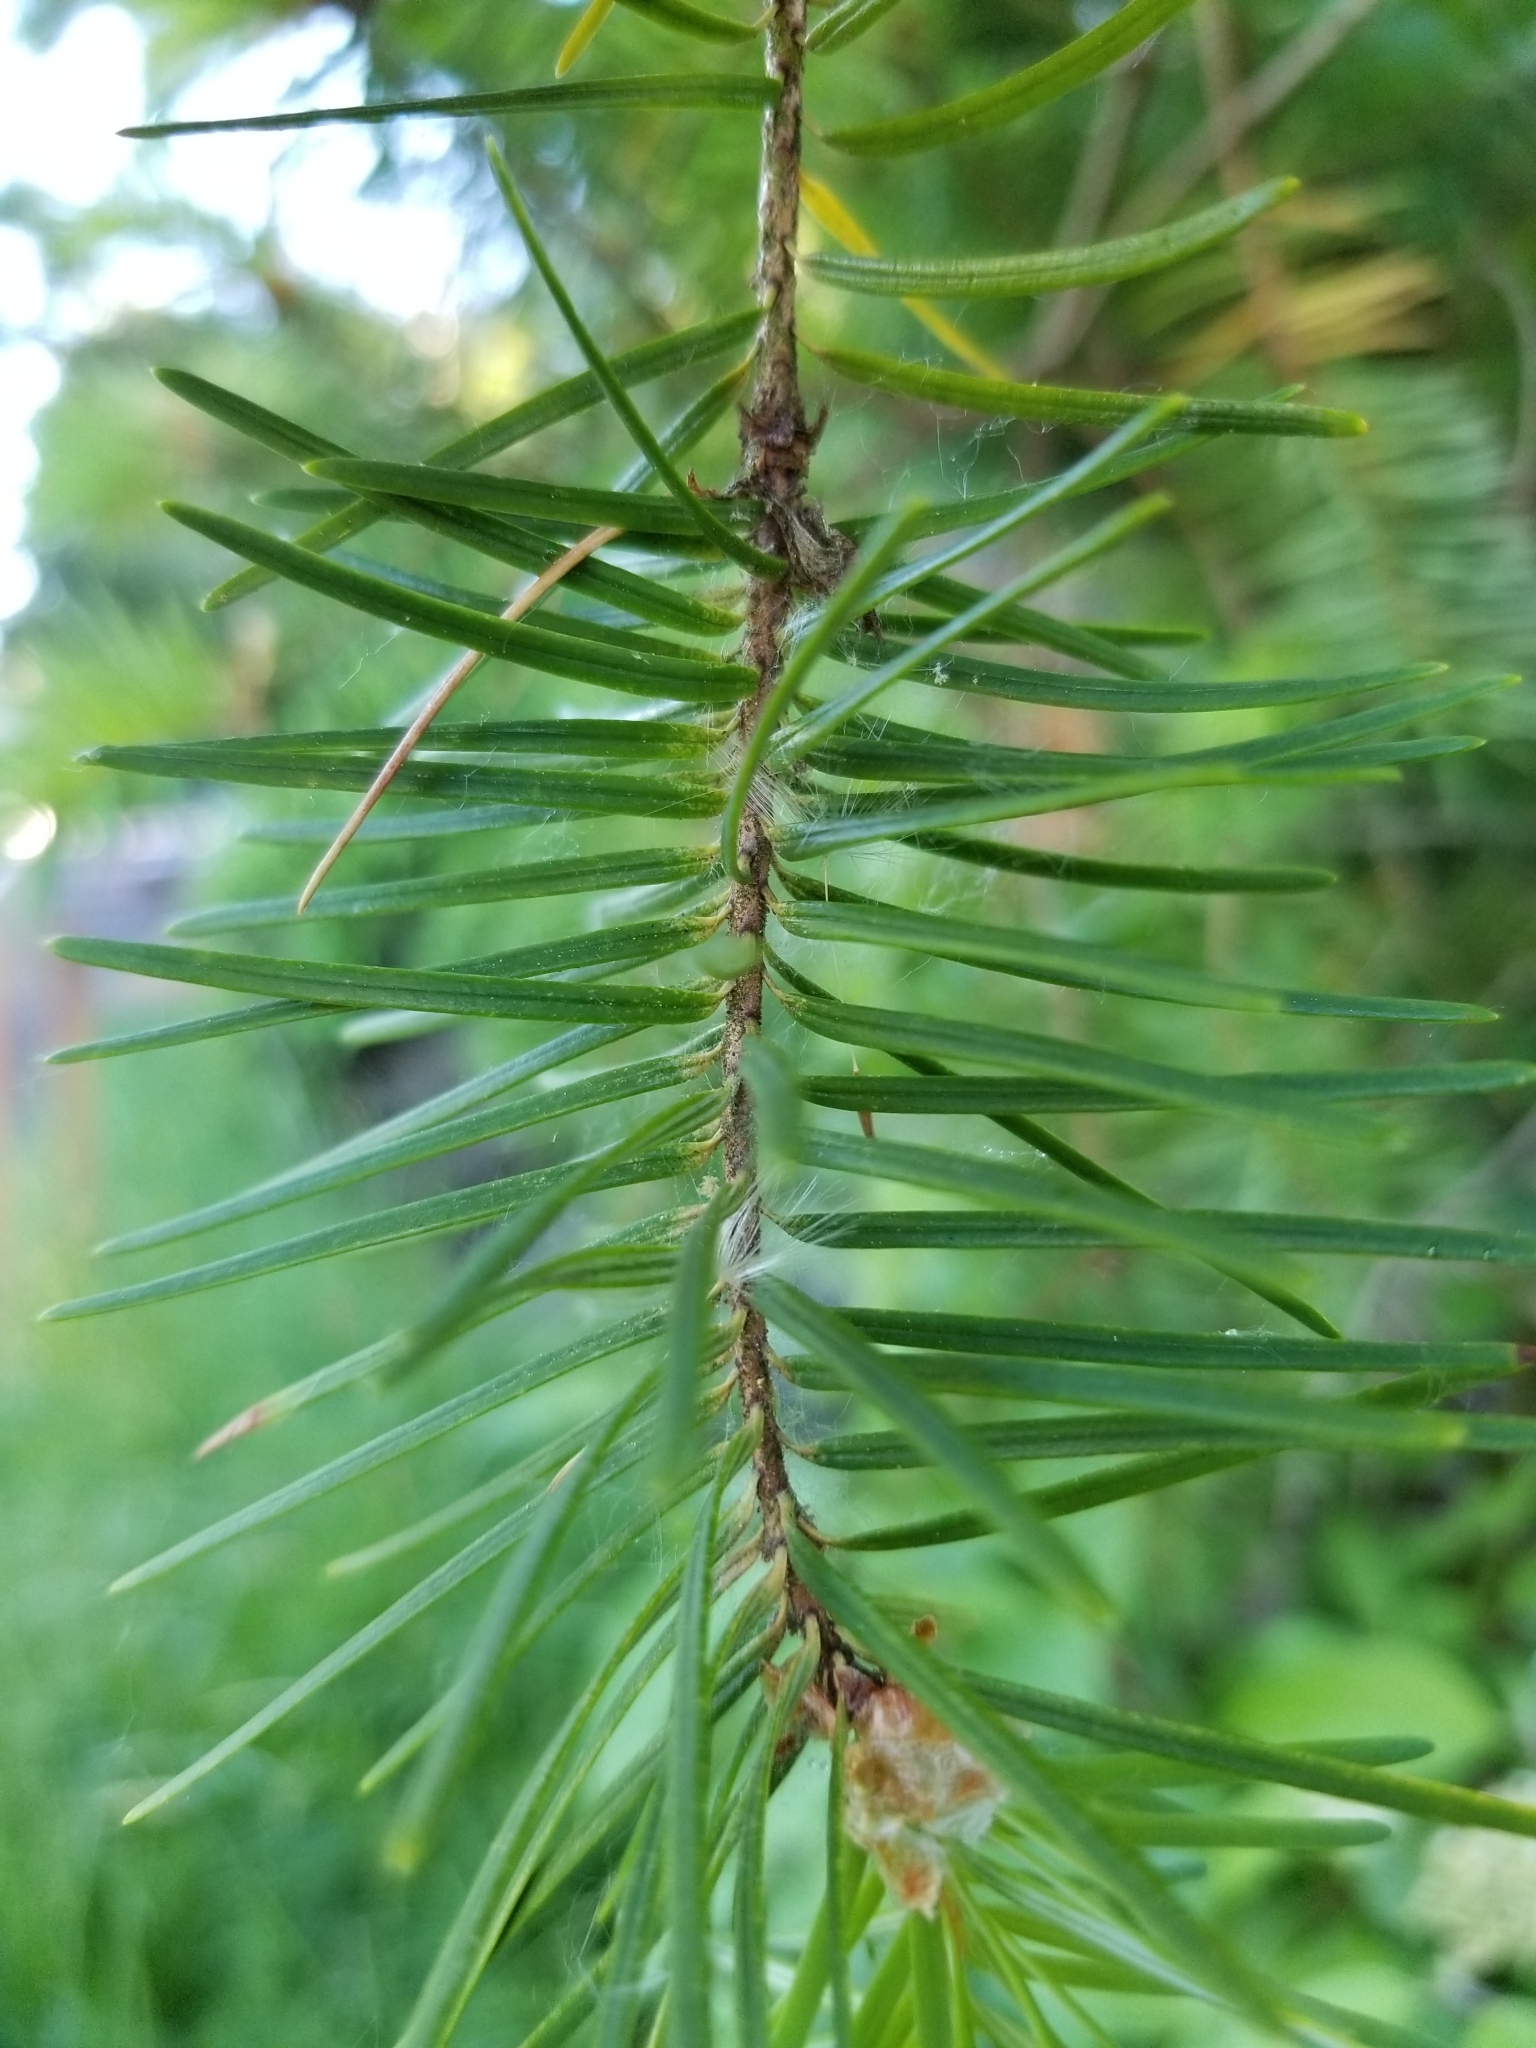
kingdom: Plantae
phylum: Tracheophyta
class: Pinopsida
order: Pinales
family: Pinaceae
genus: Pseudotsuga
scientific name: Pseudotsuga menziesii
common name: Douglas fir
